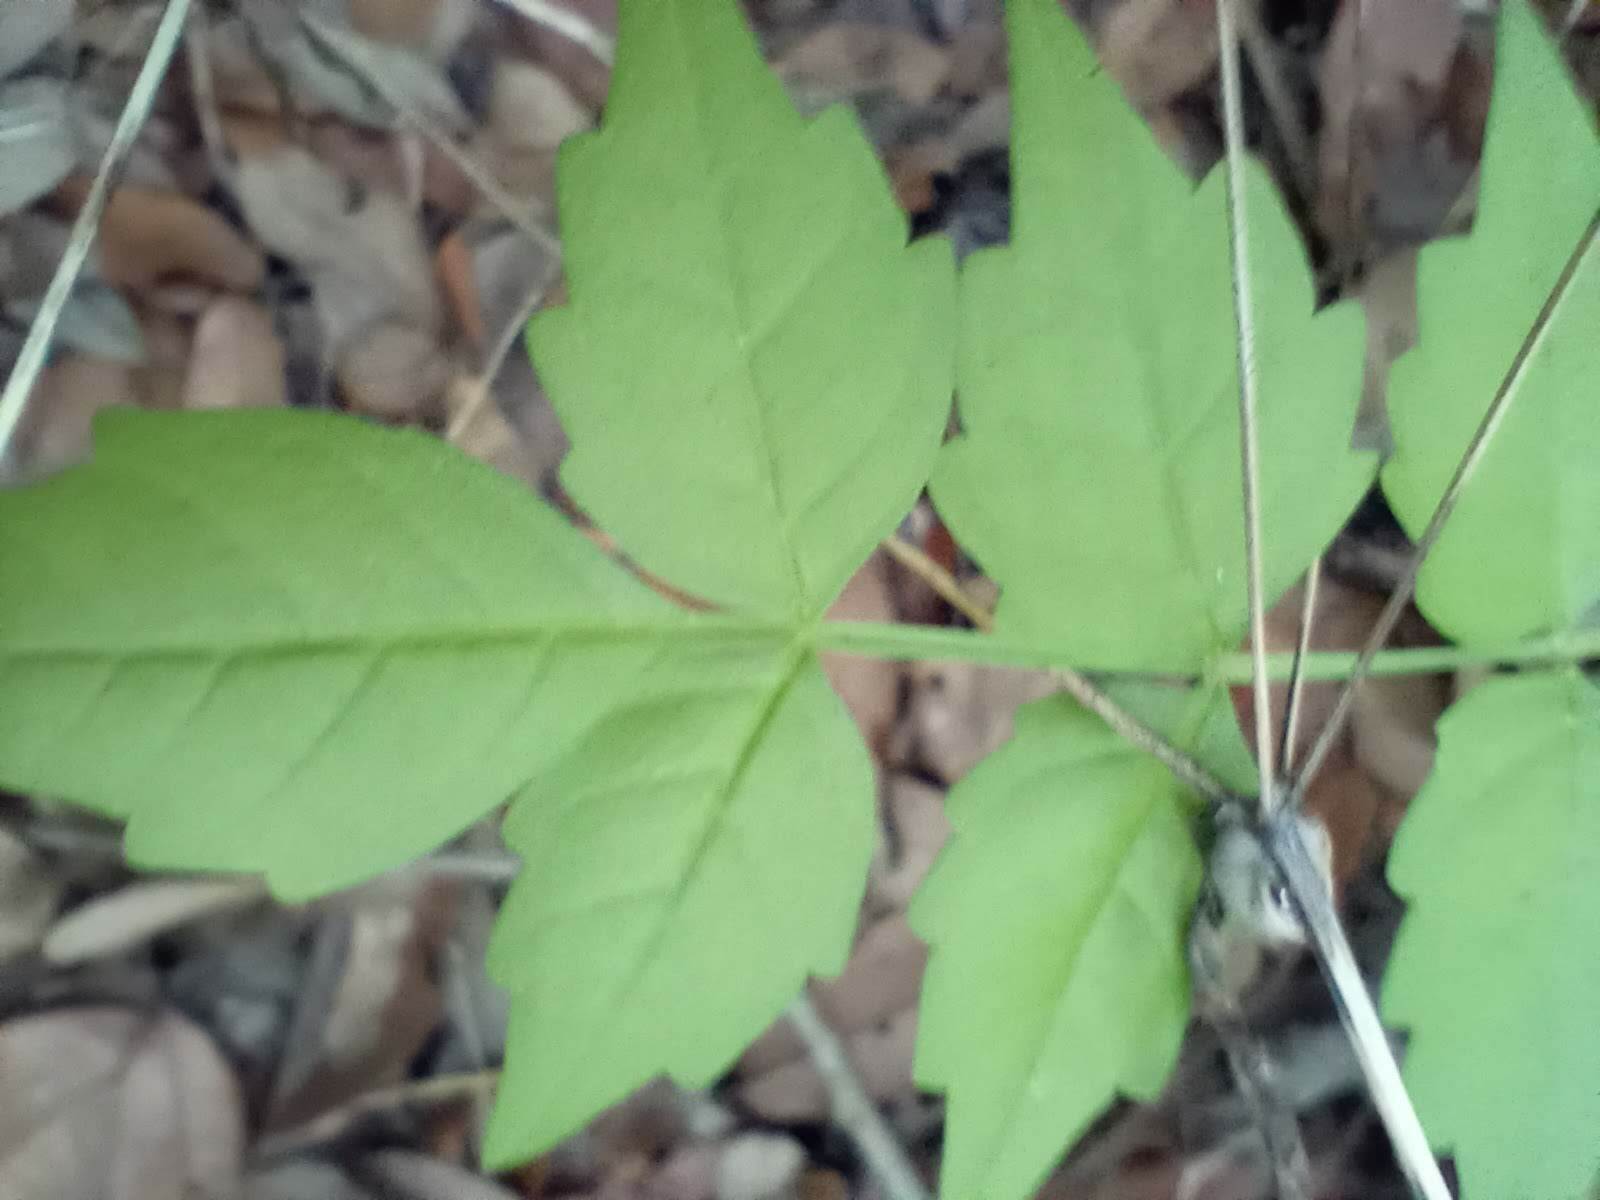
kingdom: Plantae
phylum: Tracheophyta
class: Magnoliopsida
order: Lamiales
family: Bignoniaceae
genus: Campsis
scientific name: Campsis radicans
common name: Trumpet-creeper
